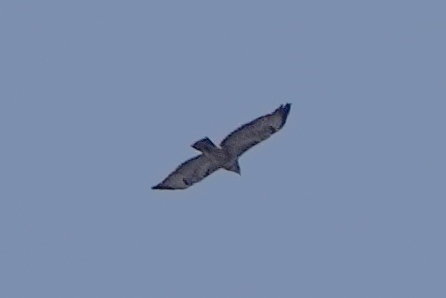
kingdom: Animalia
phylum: Chordata
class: Aves
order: Accipitriformes
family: Accipitridae
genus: Buteo
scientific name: Buteo lagopus
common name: Rough-legged buzzard
